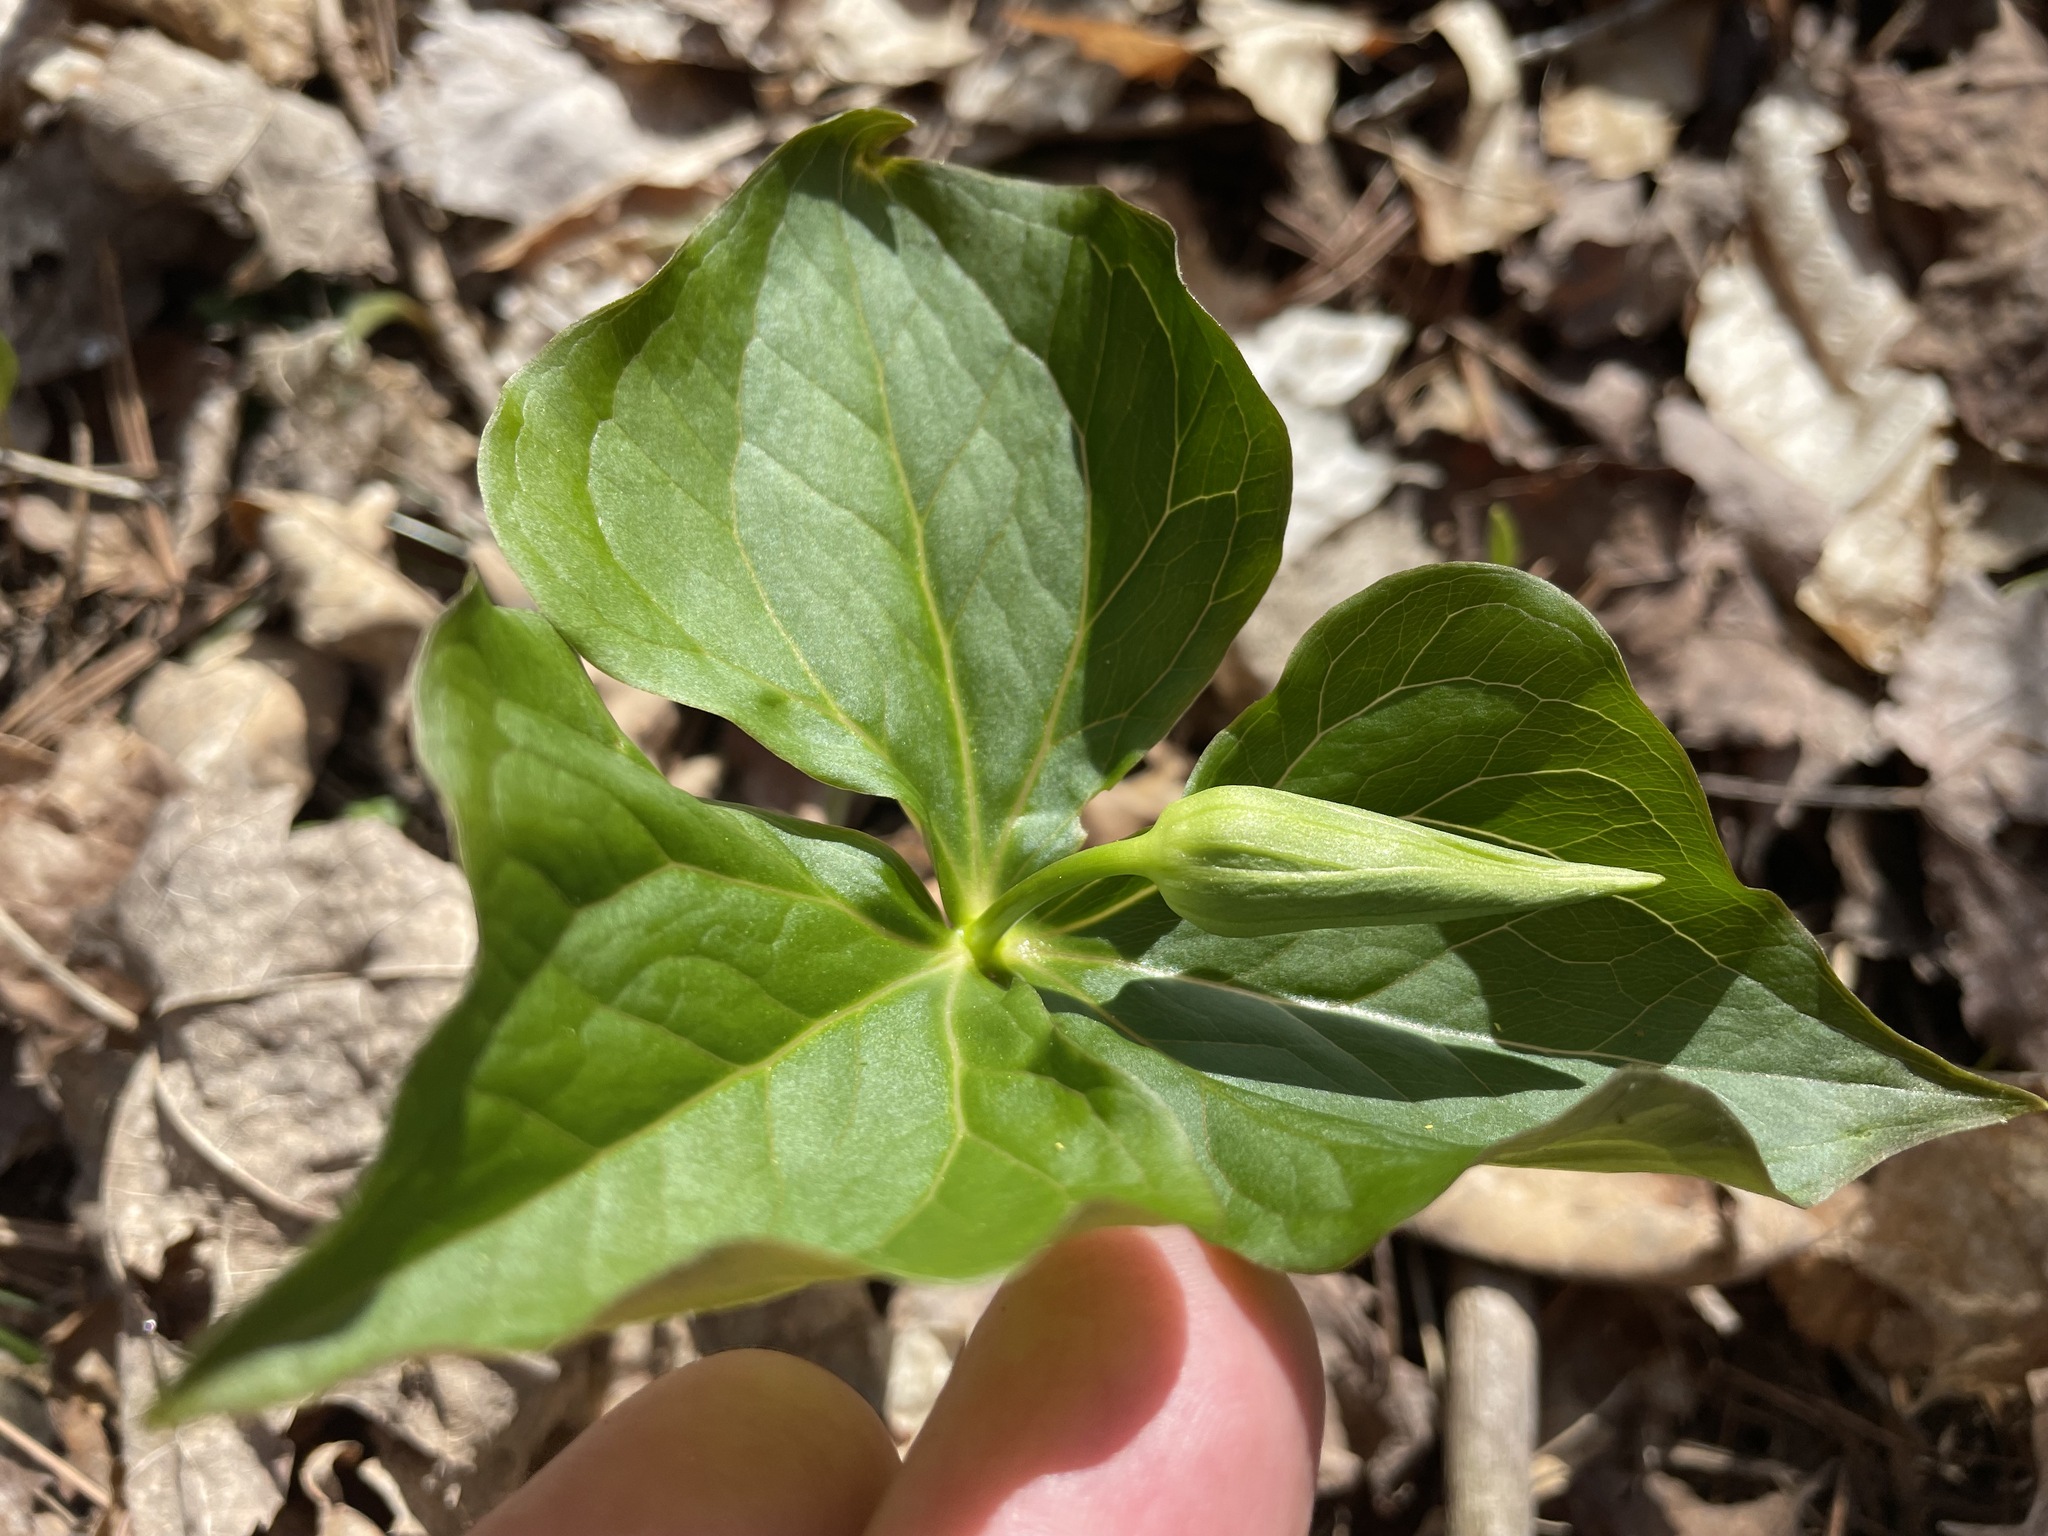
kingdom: Plantae
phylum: Tracheophyta
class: Liliopsida
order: Liliales
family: Melanthiaceae
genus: Trillium
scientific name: Trillium erectum
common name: Purple trillium
